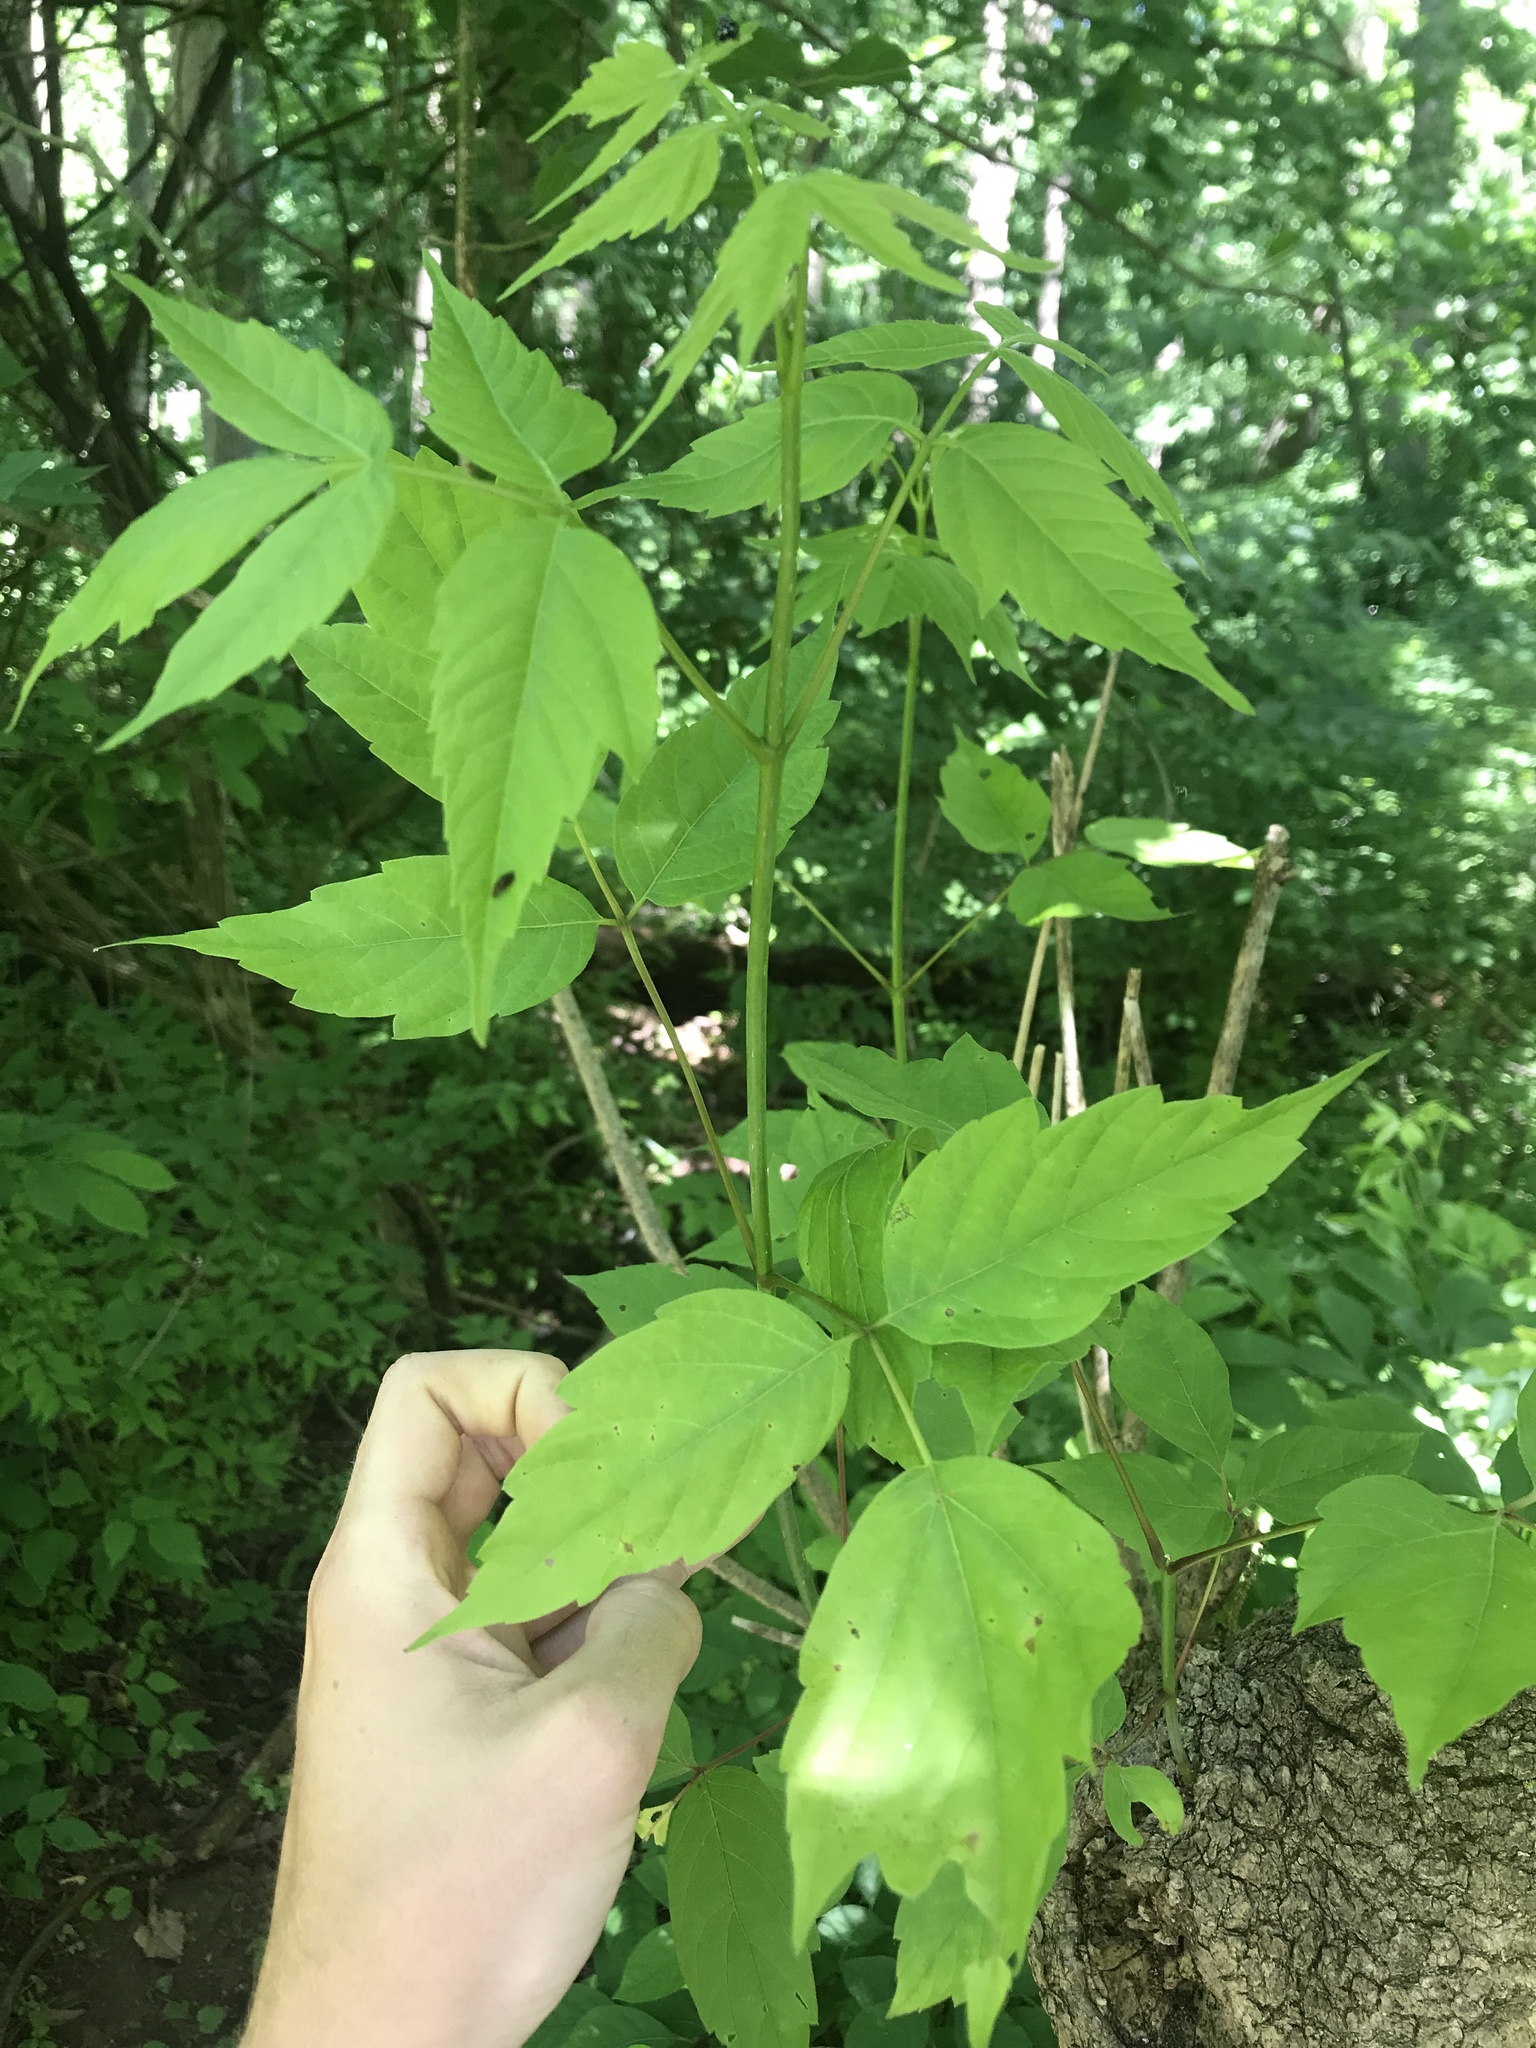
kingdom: Plantae
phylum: Tracheophyta
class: Magnoliopsida
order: Sapindales
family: Sapindaceae
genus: Acer
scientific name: Acer negundo
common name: Ashleaf maple
